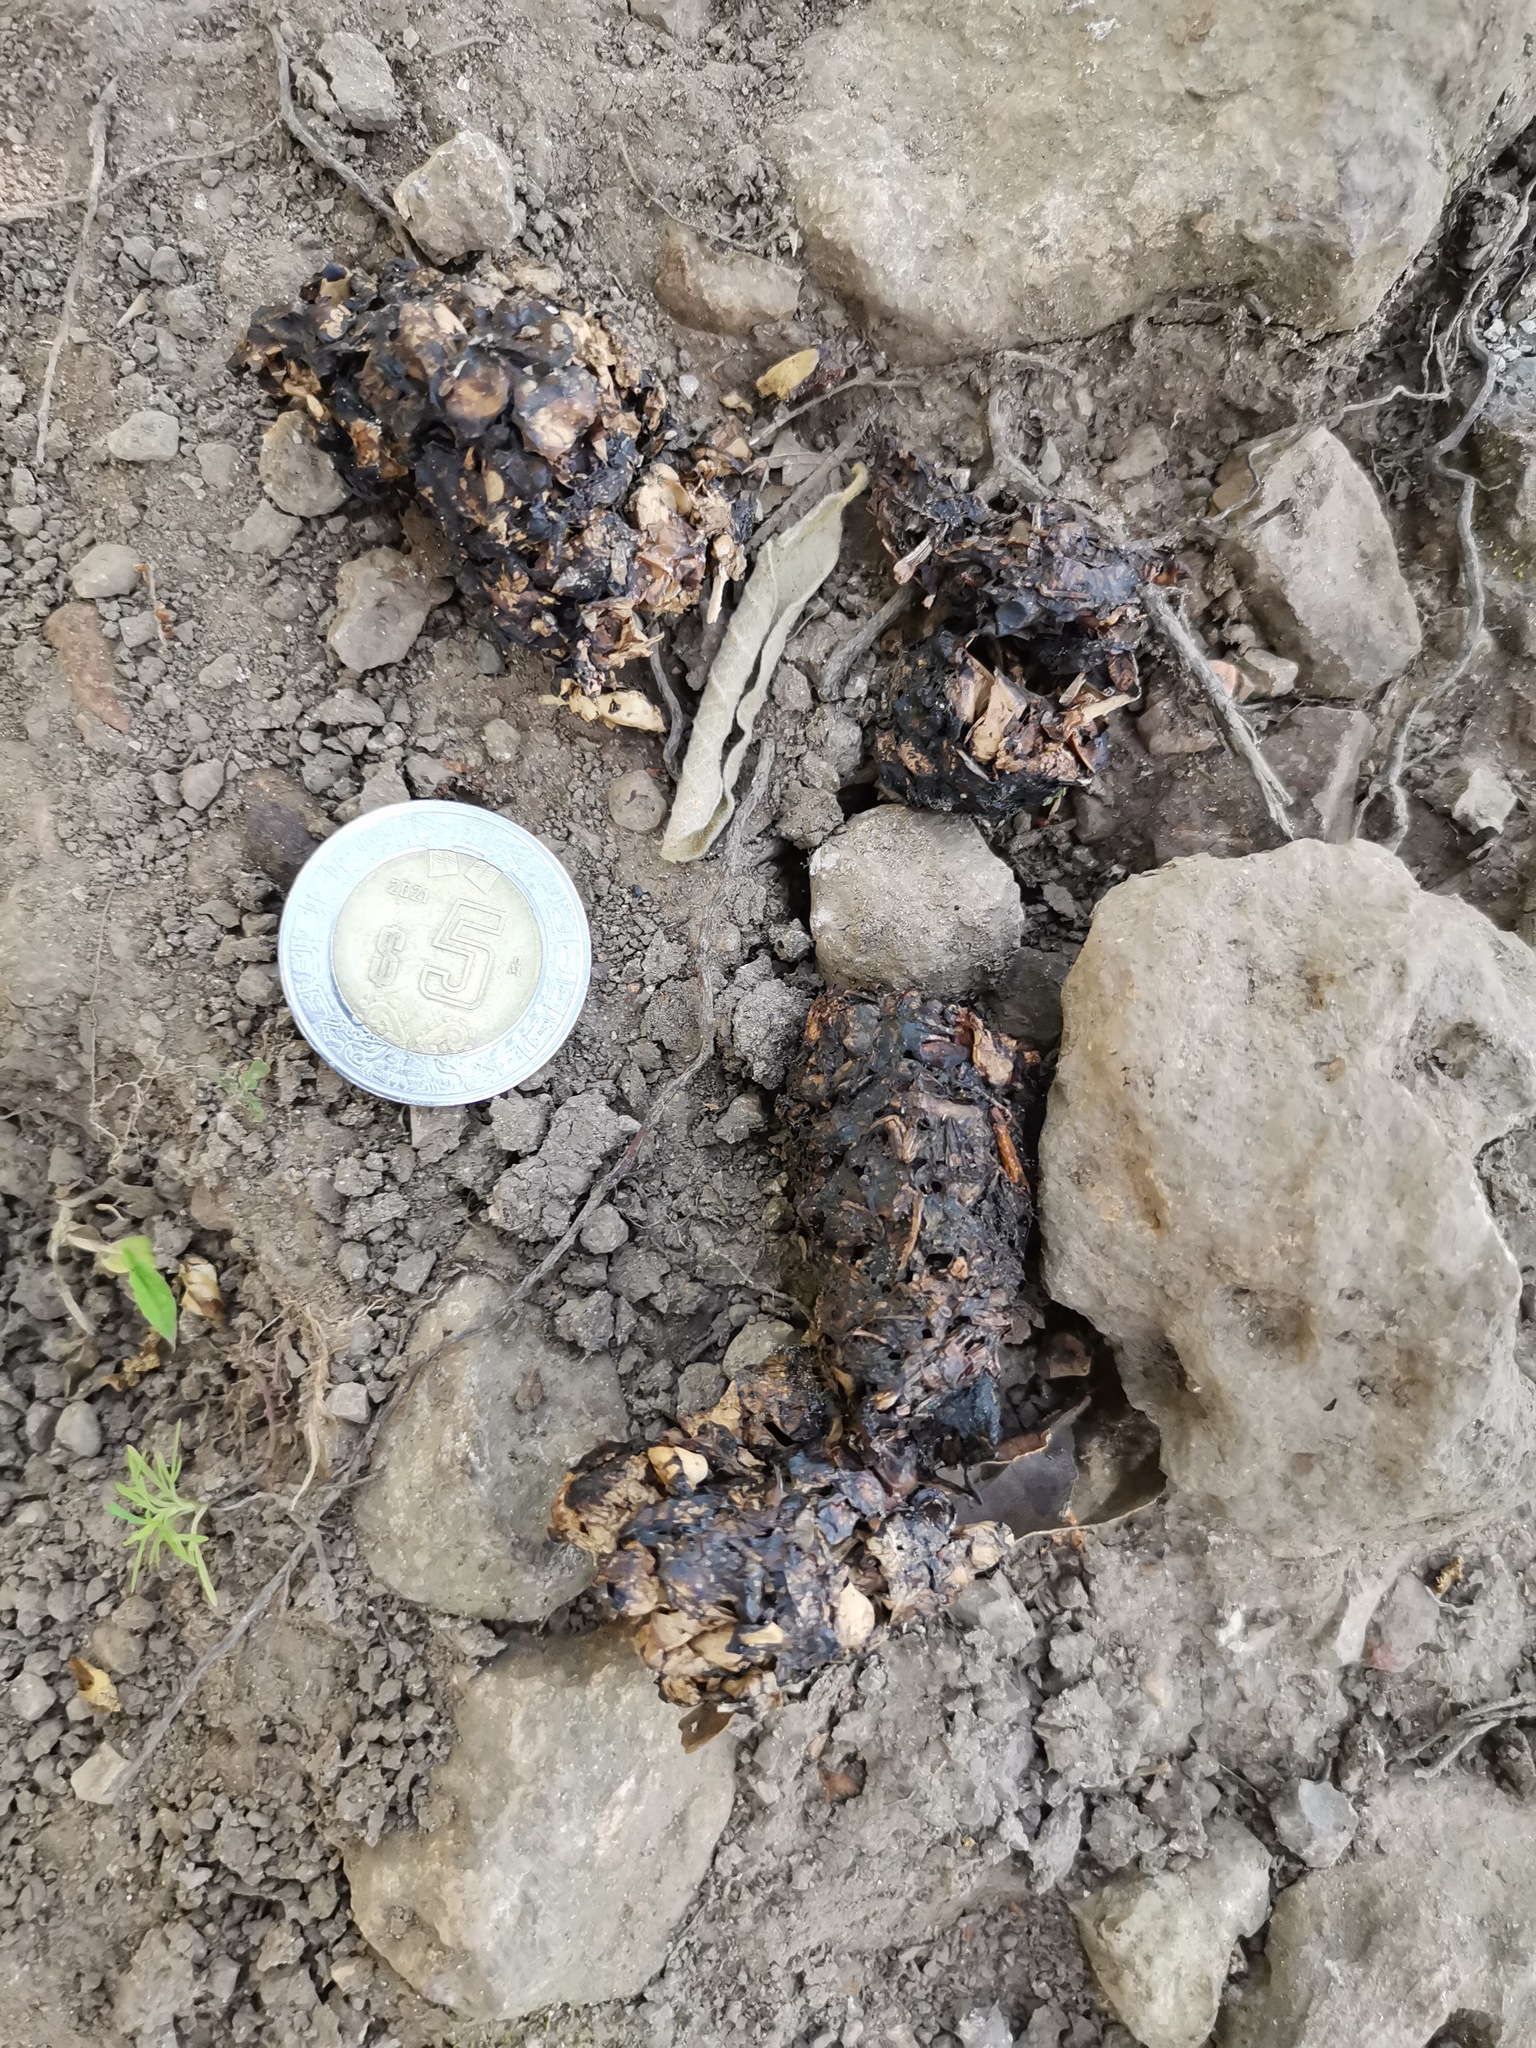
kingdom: Animalia
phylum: Chordata
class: Mammalia
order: Carnivora
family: Procyonidae
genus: Procyon
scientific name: Procyon lotor
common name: Raccoon
